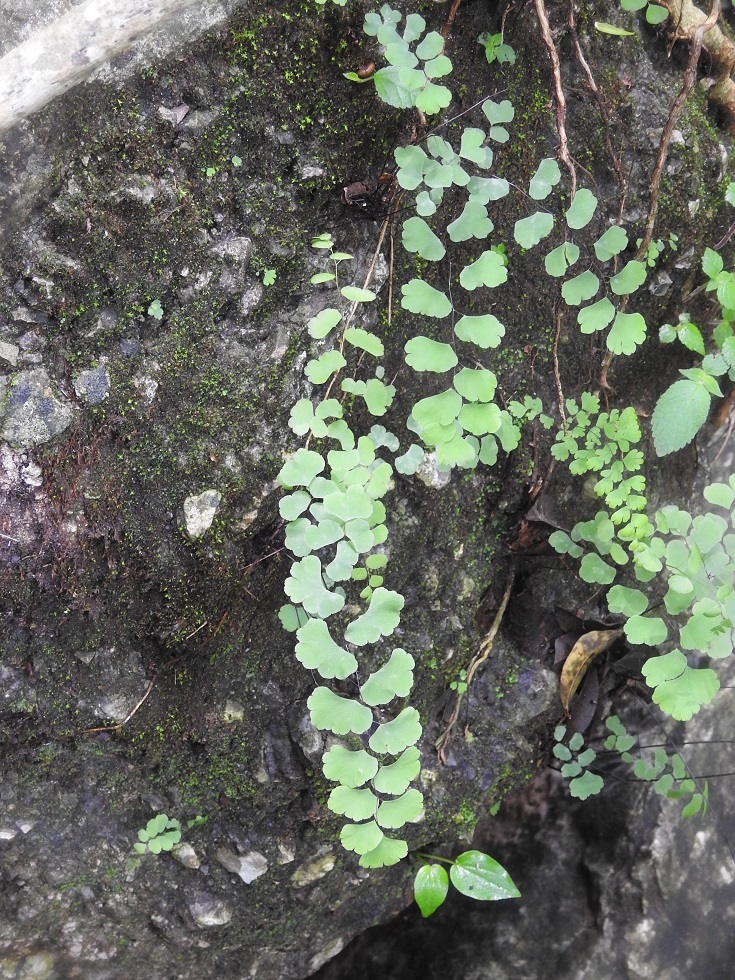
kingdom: Plantae
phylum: Tracheophyta
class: Polypodiopsida
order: Polypodiales
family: Pteridaceae
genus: Adiantum
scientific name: Adiantum deflectens
